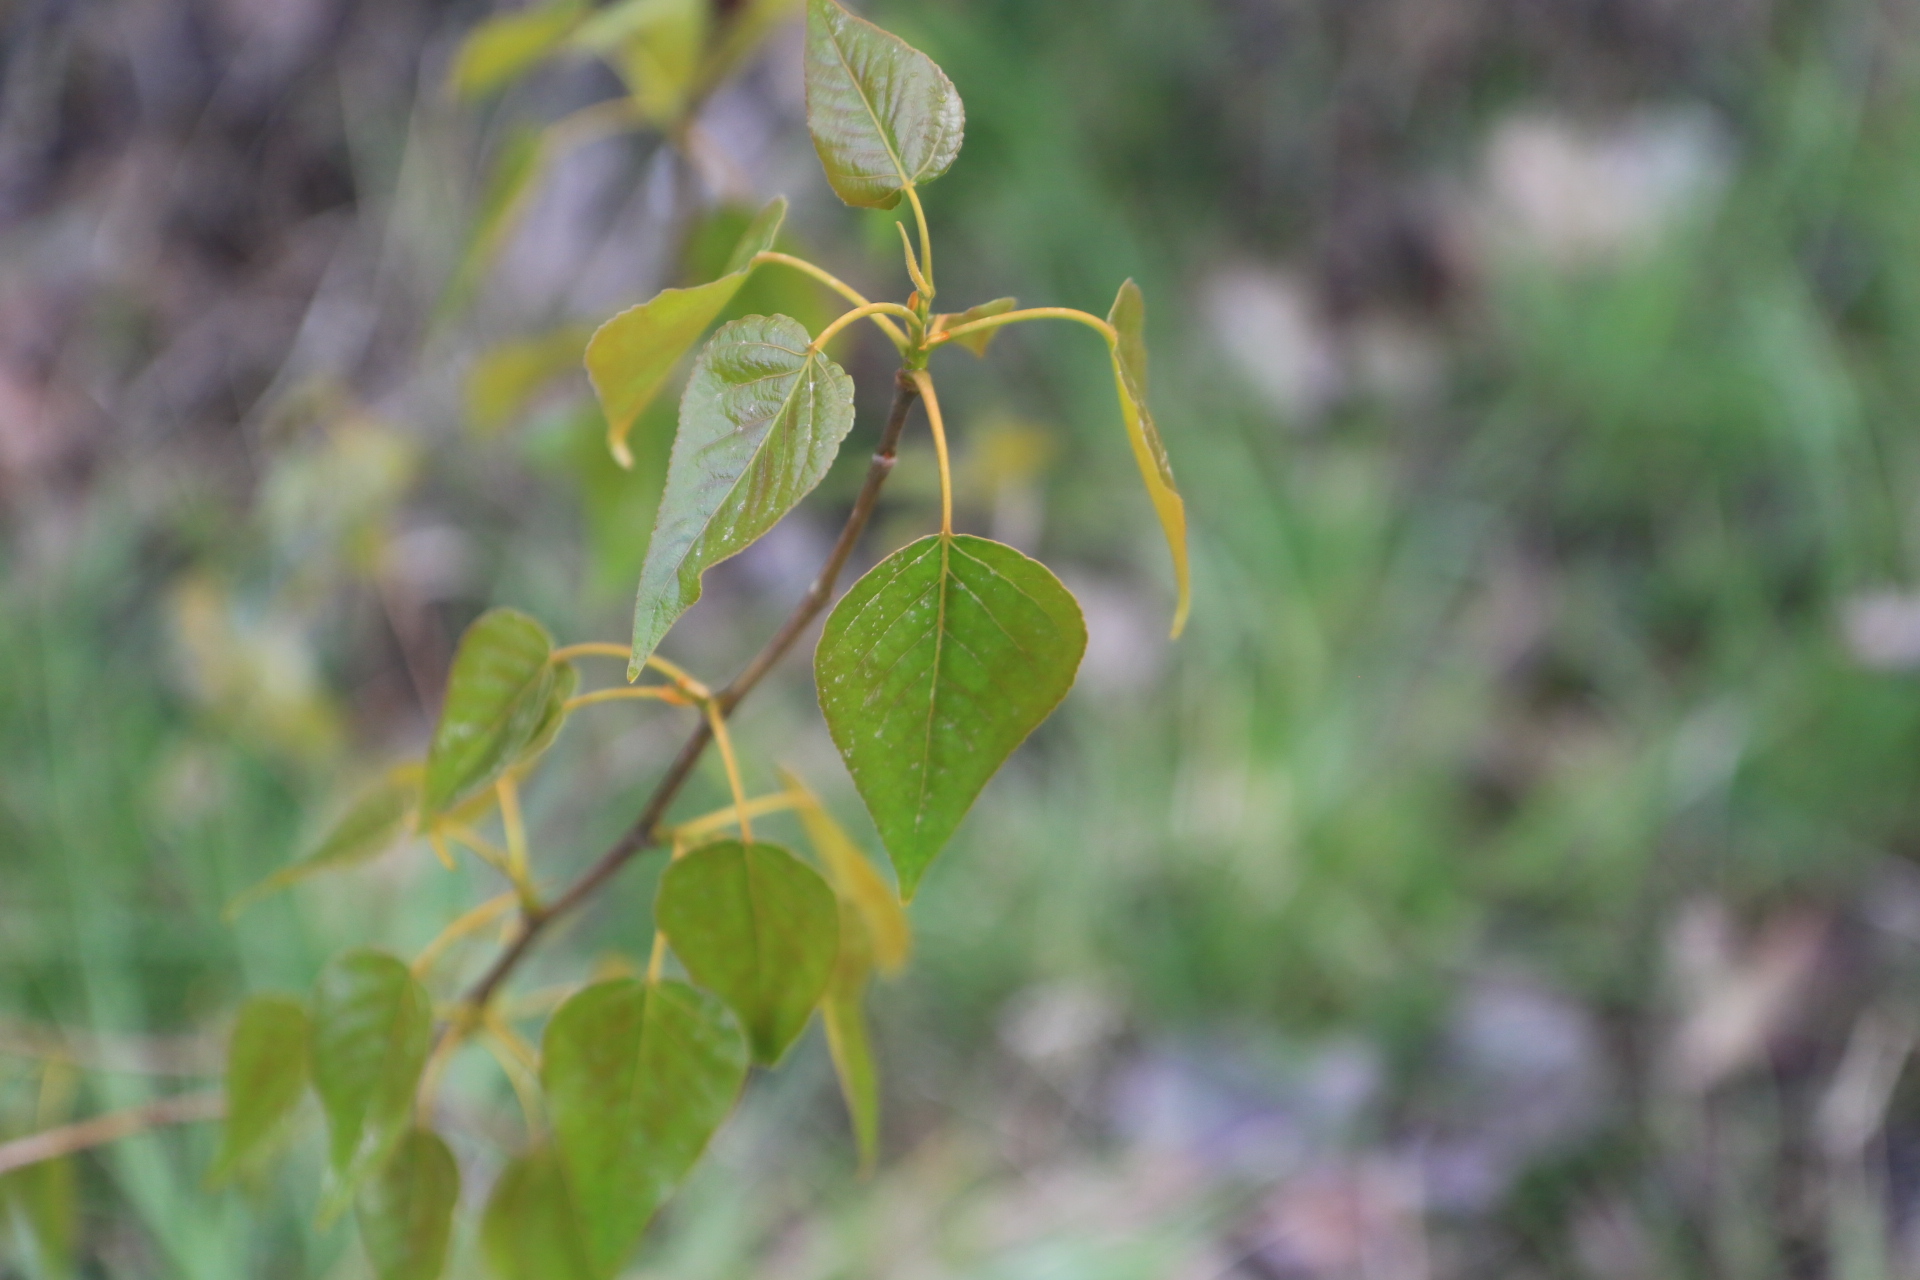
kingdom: Plantae
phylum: Tracheophyta
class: Magnoliopsida
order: Malpighiales
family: Salicaceae
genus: Populus
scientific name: Populus trichocarpa
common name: Black cottonwood
